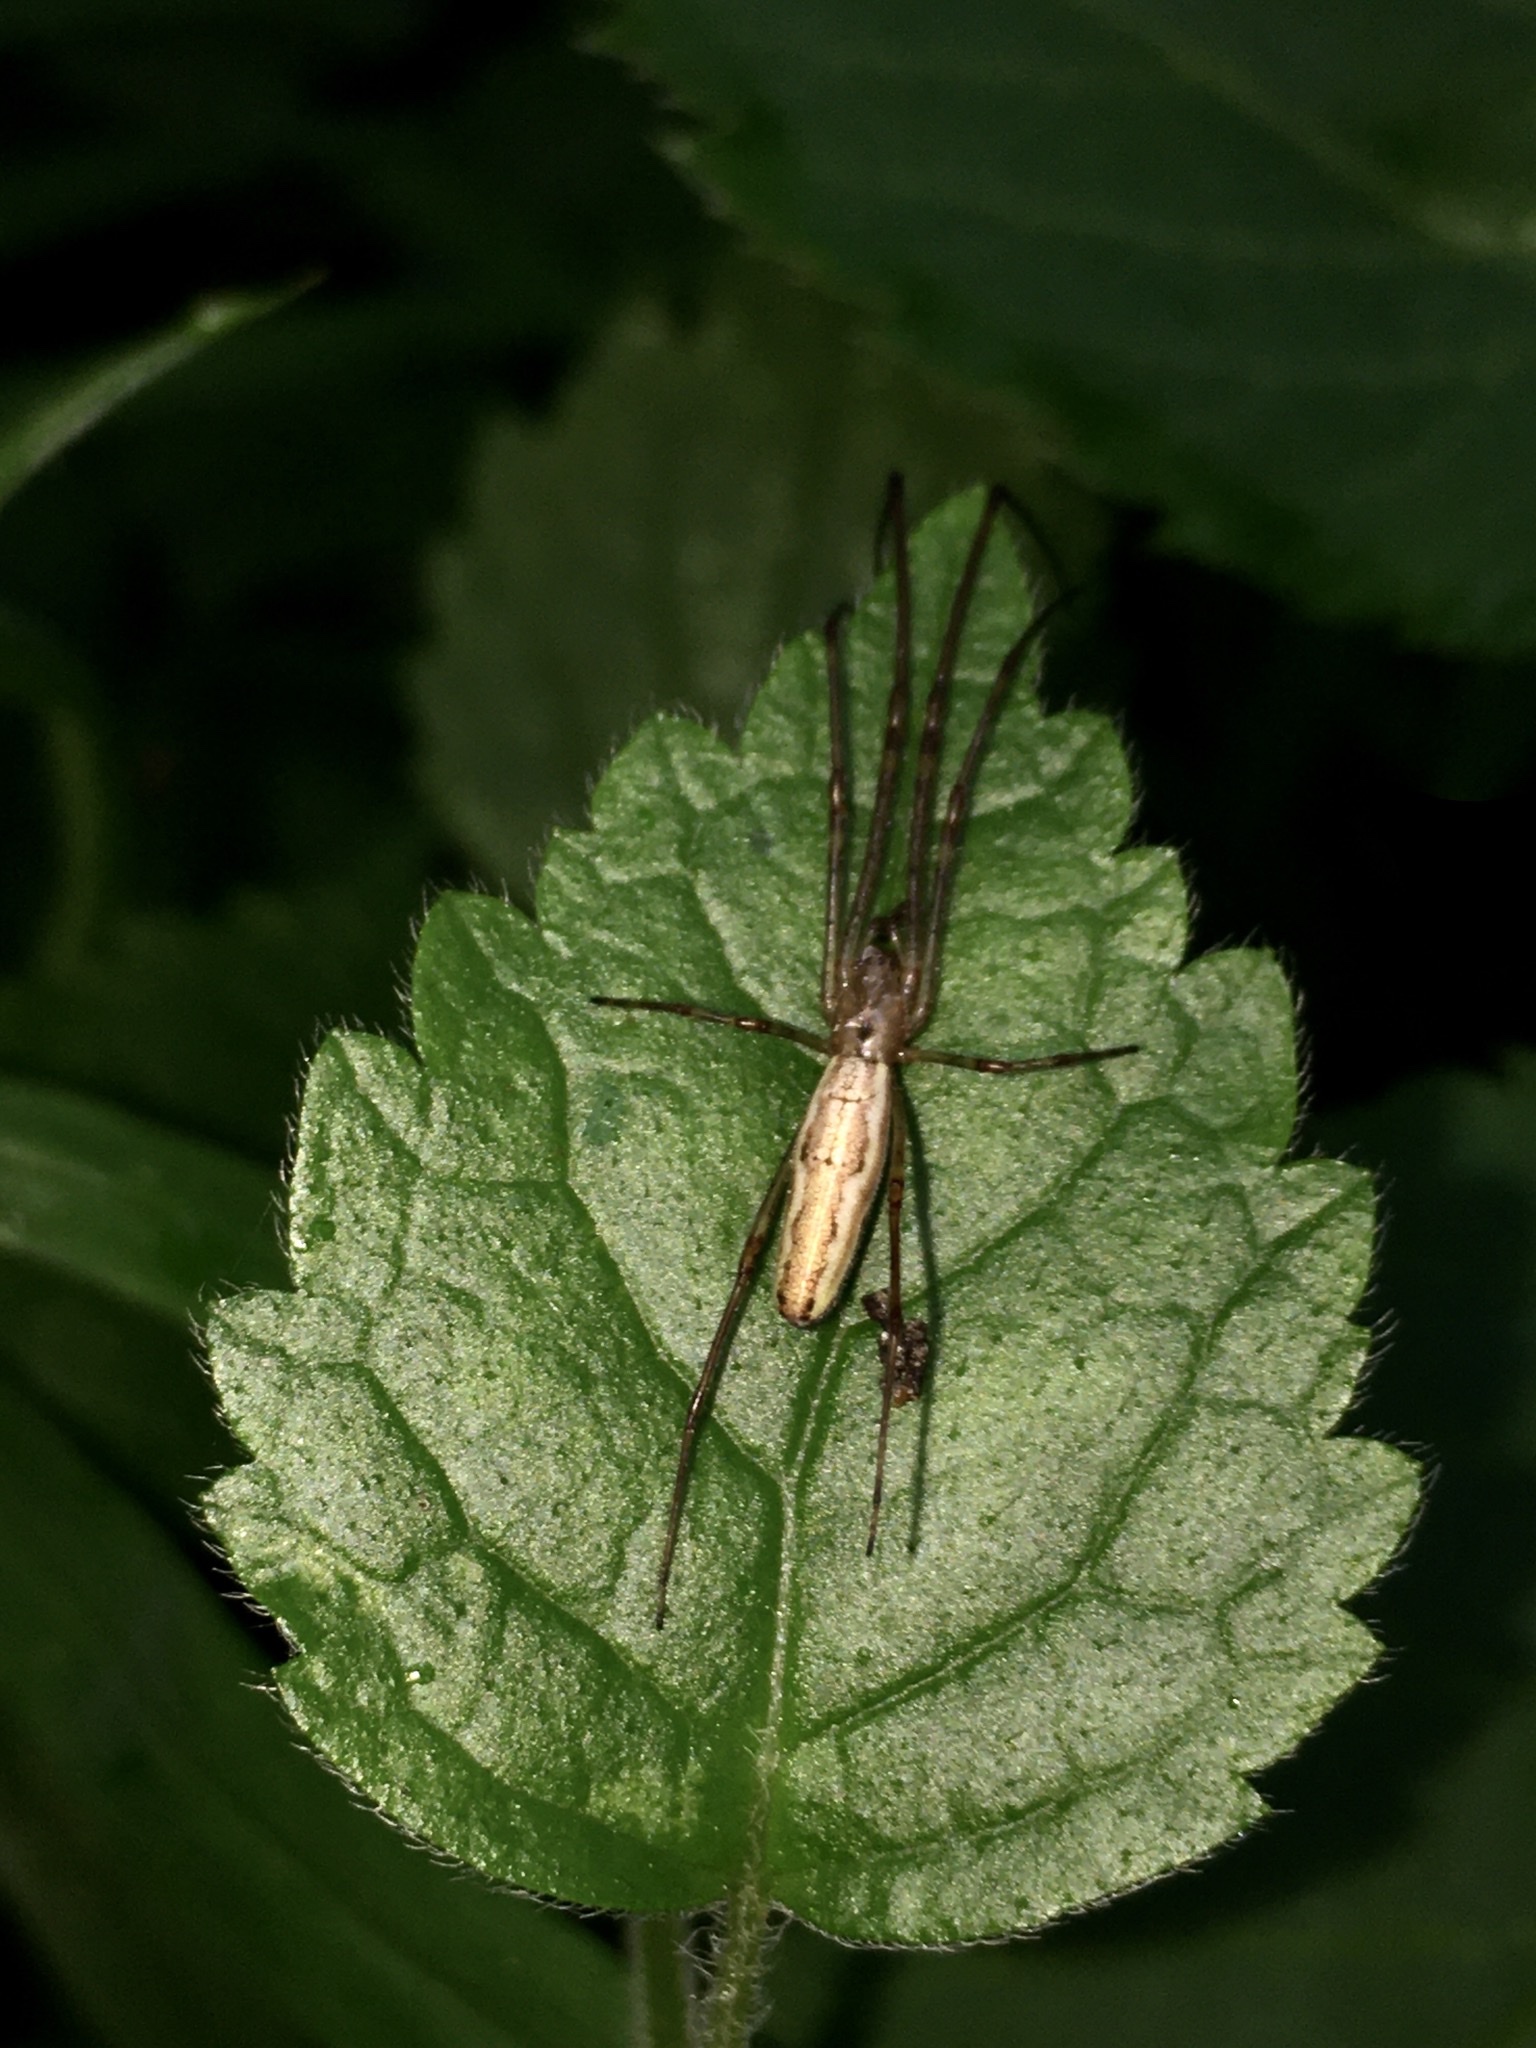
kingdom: Animalia
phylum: Arthropoda
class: Arachnida
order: Araneae
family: Tetragnathidae
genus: Tetragnatha
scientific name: Tetragnatha
